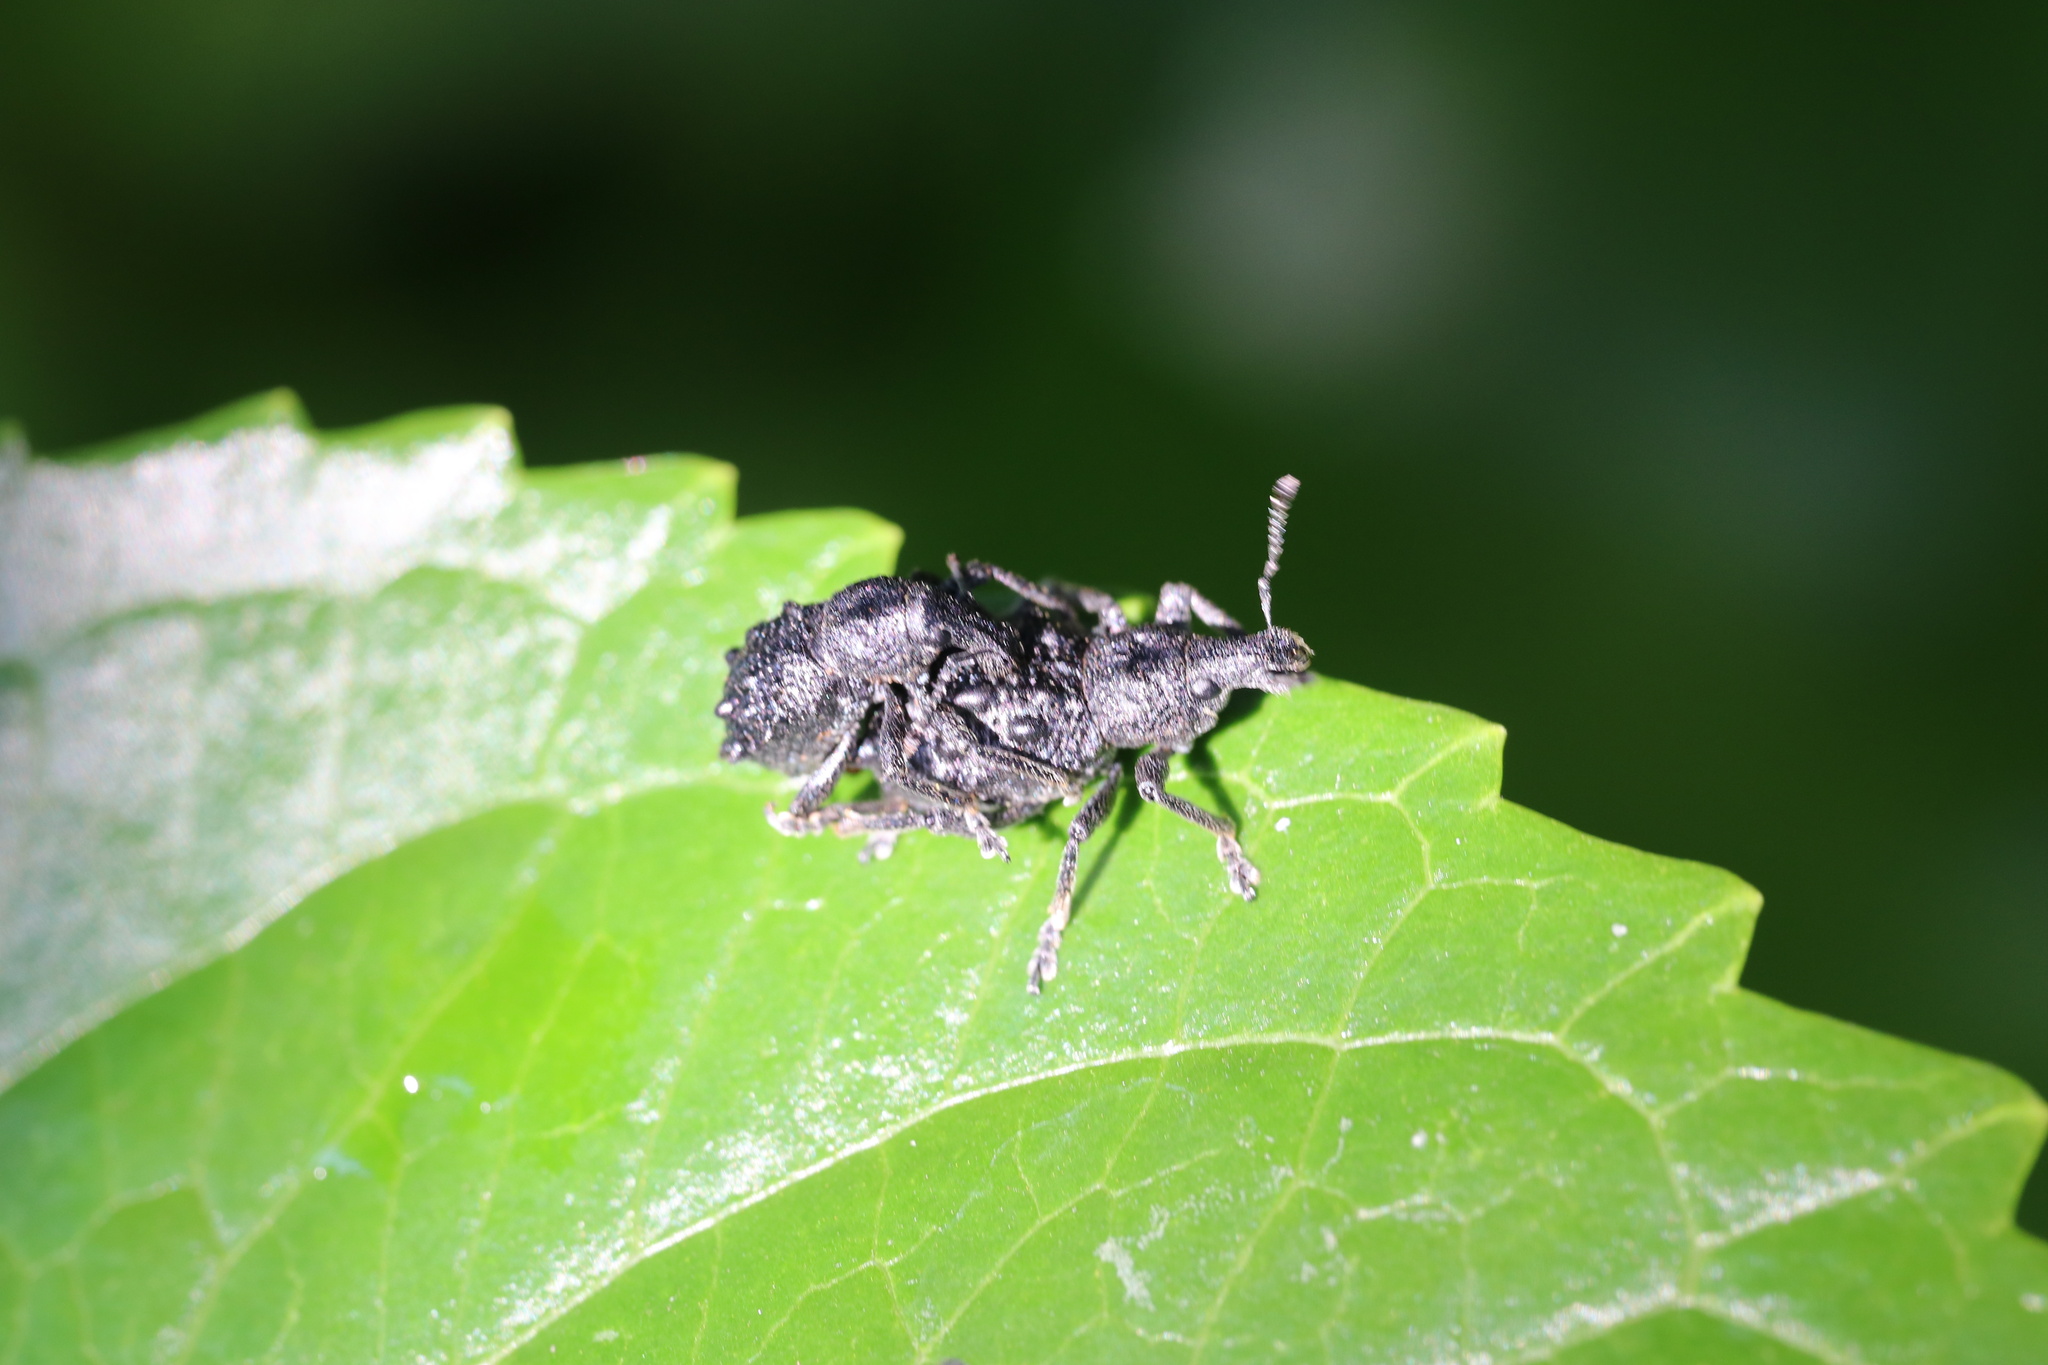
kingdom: Animalia
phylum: Arthropoda
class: Insecta
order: Coleoptera
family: Curculionidae
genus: Megalometis
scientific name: Megalometis spiniferus
